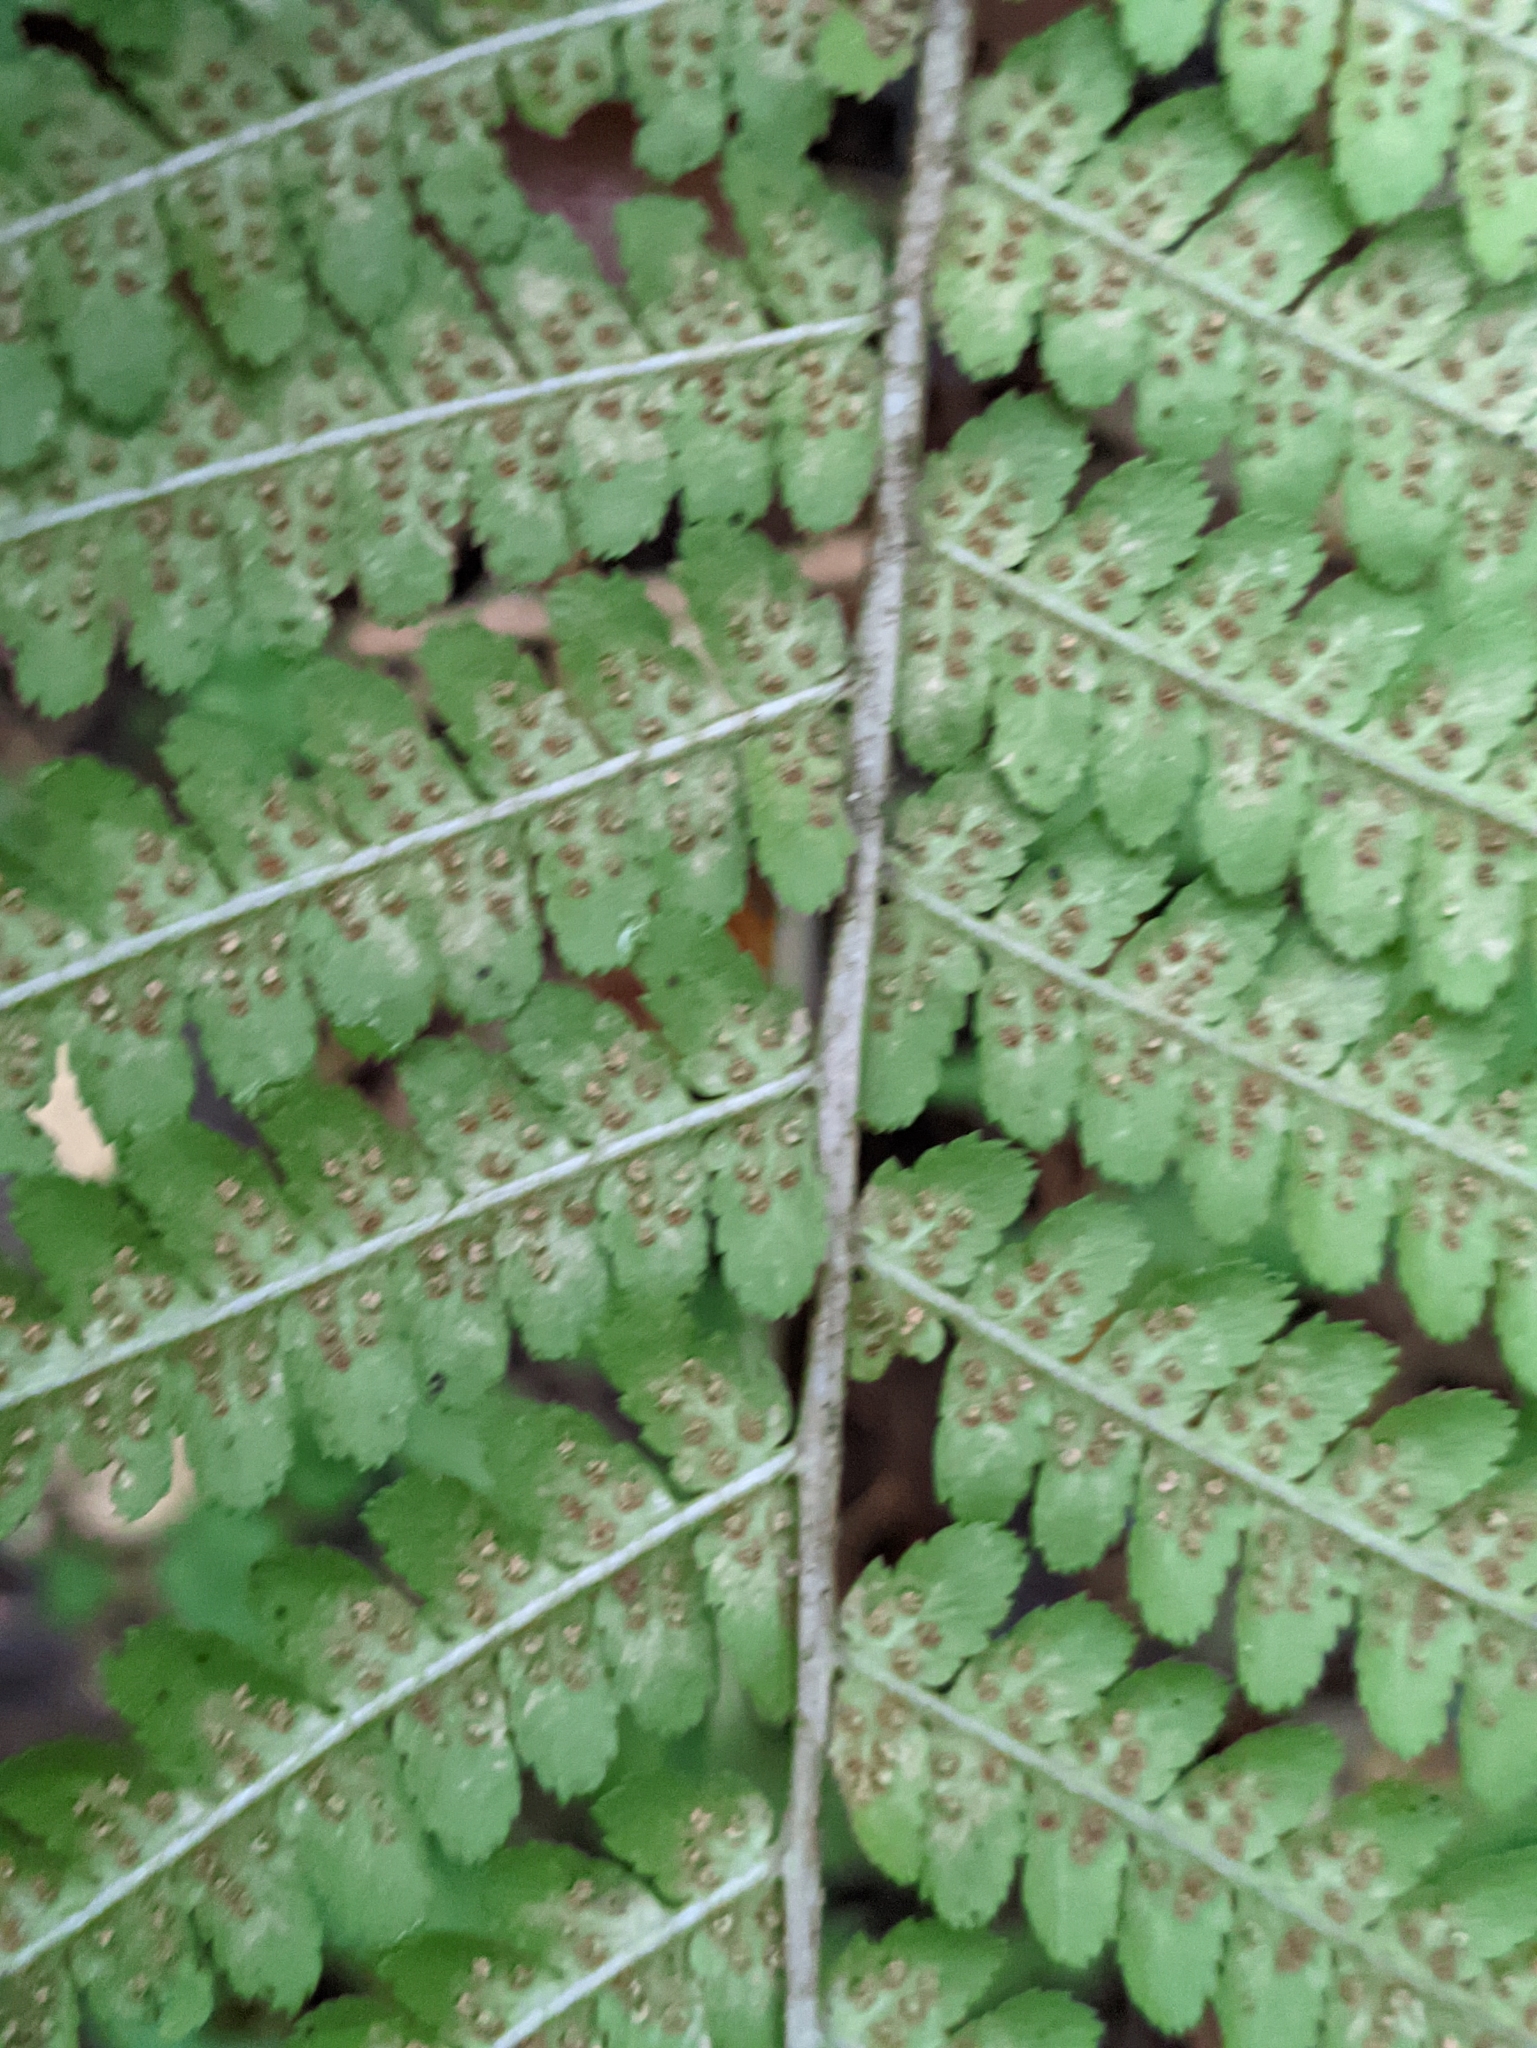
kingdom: Plantae
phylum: Tracheophyta
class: Polypodiopsida
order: Polypodiales
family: Dryopteridaceae
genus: Dryopteris
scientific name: Dryopteris filix-mas
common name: Male fern
